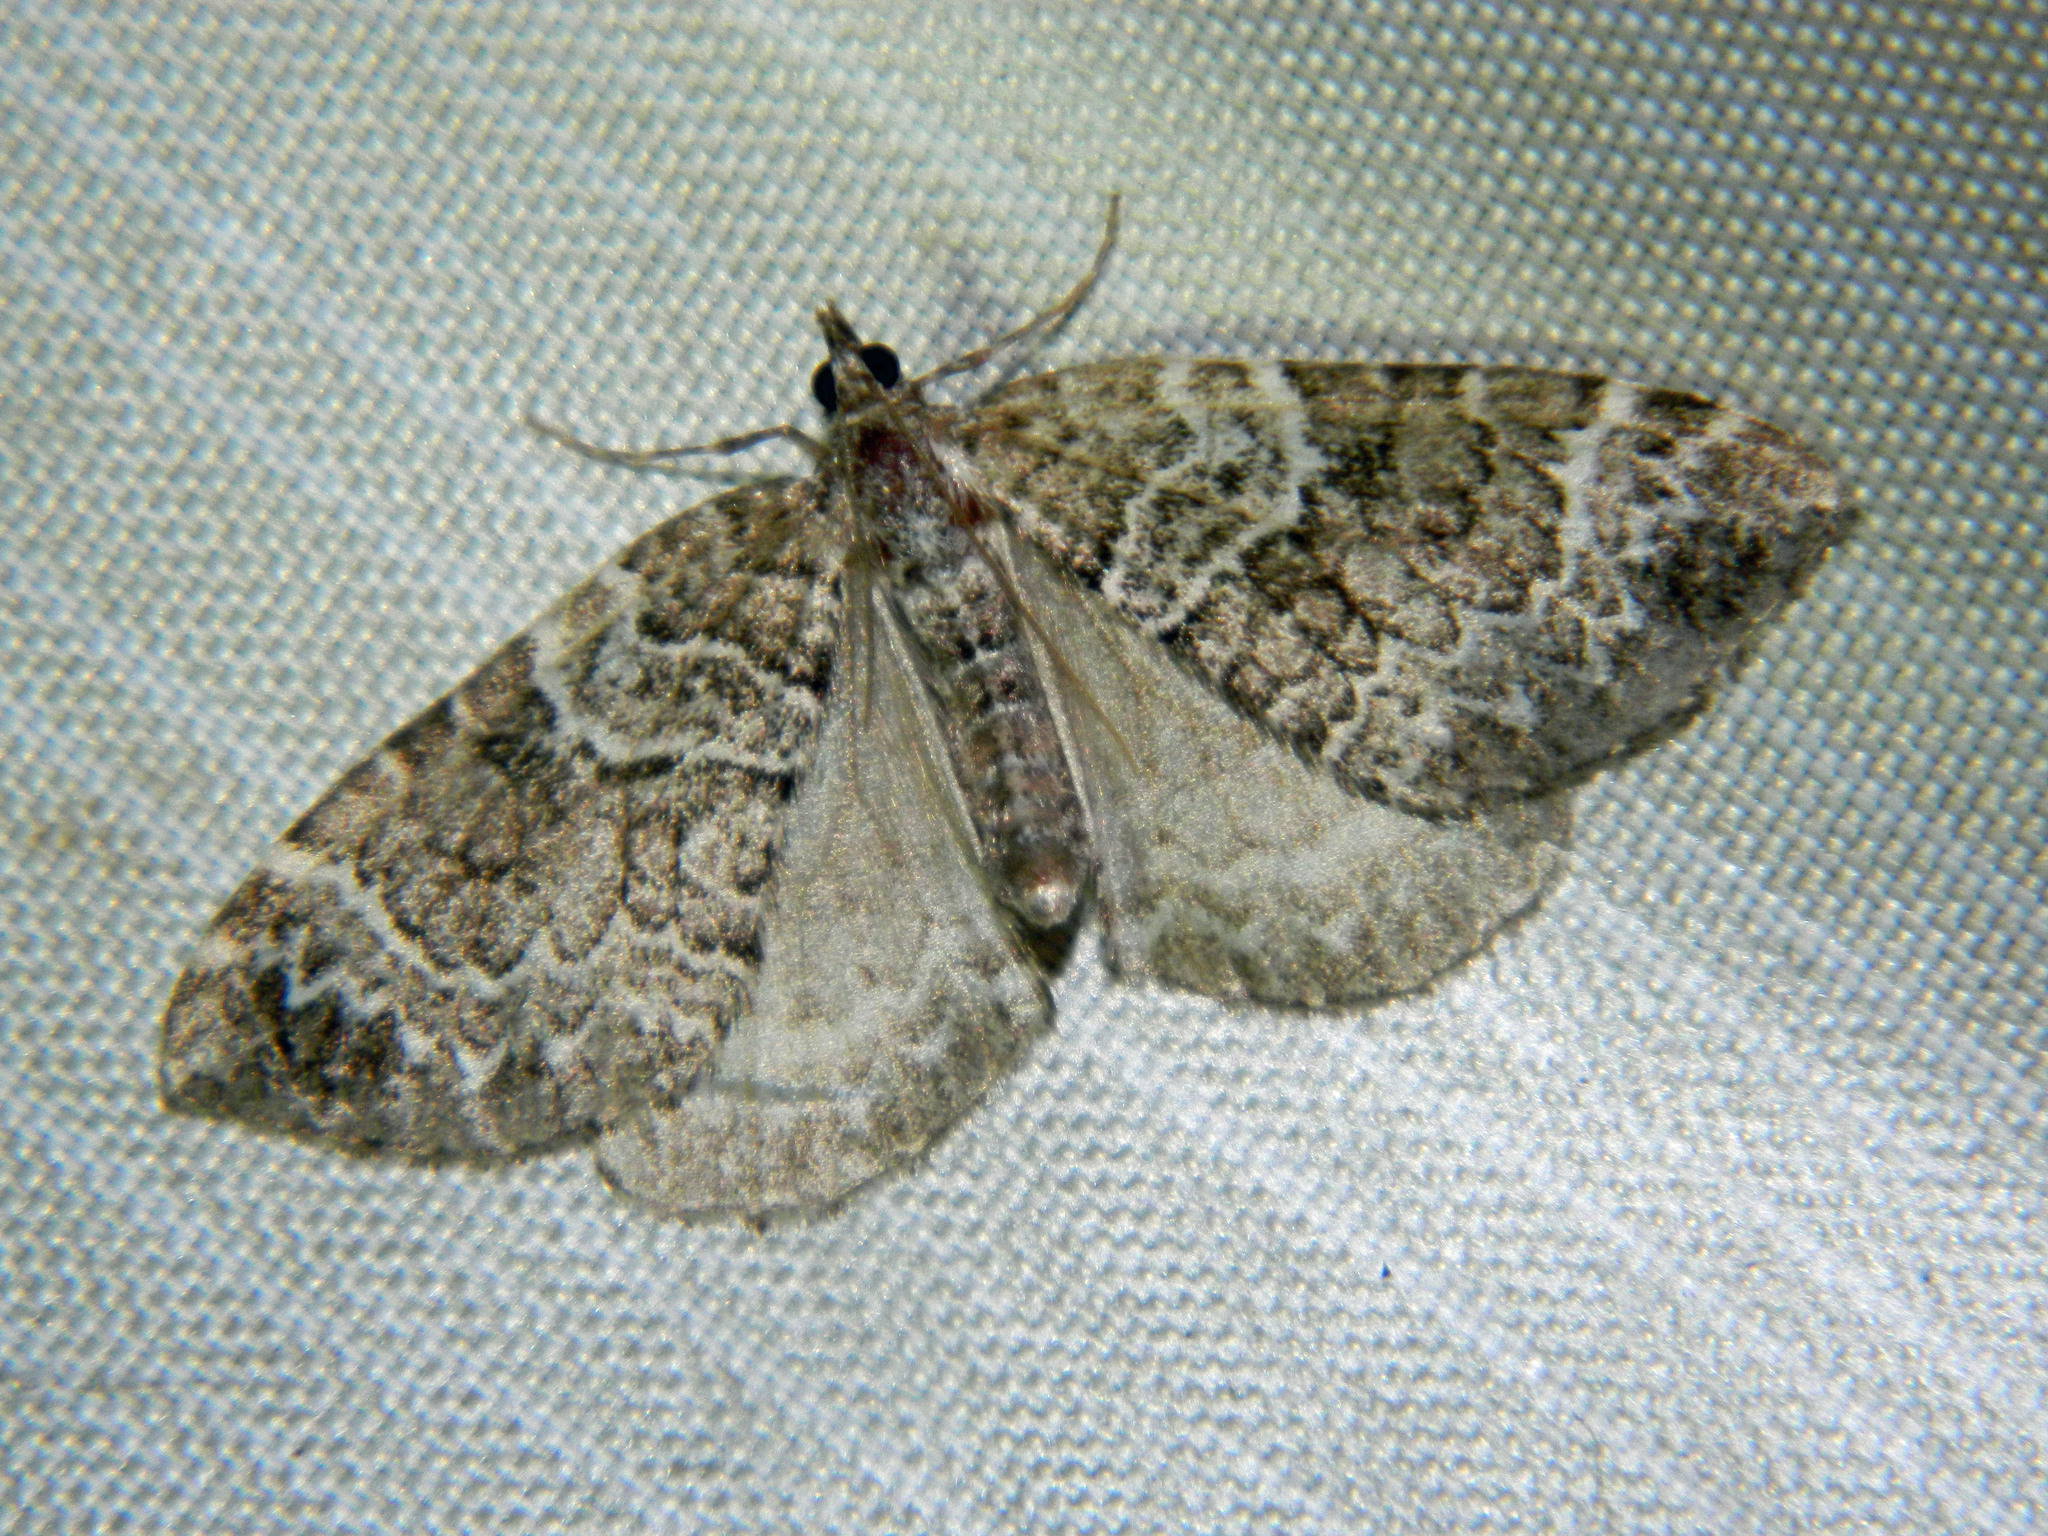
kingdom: Animalia
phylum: Arthropoda
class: Insecta
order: Lepidoptera
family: Geometridae
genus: Eulithis
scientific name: Eulithis explanata
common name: White eulithis
